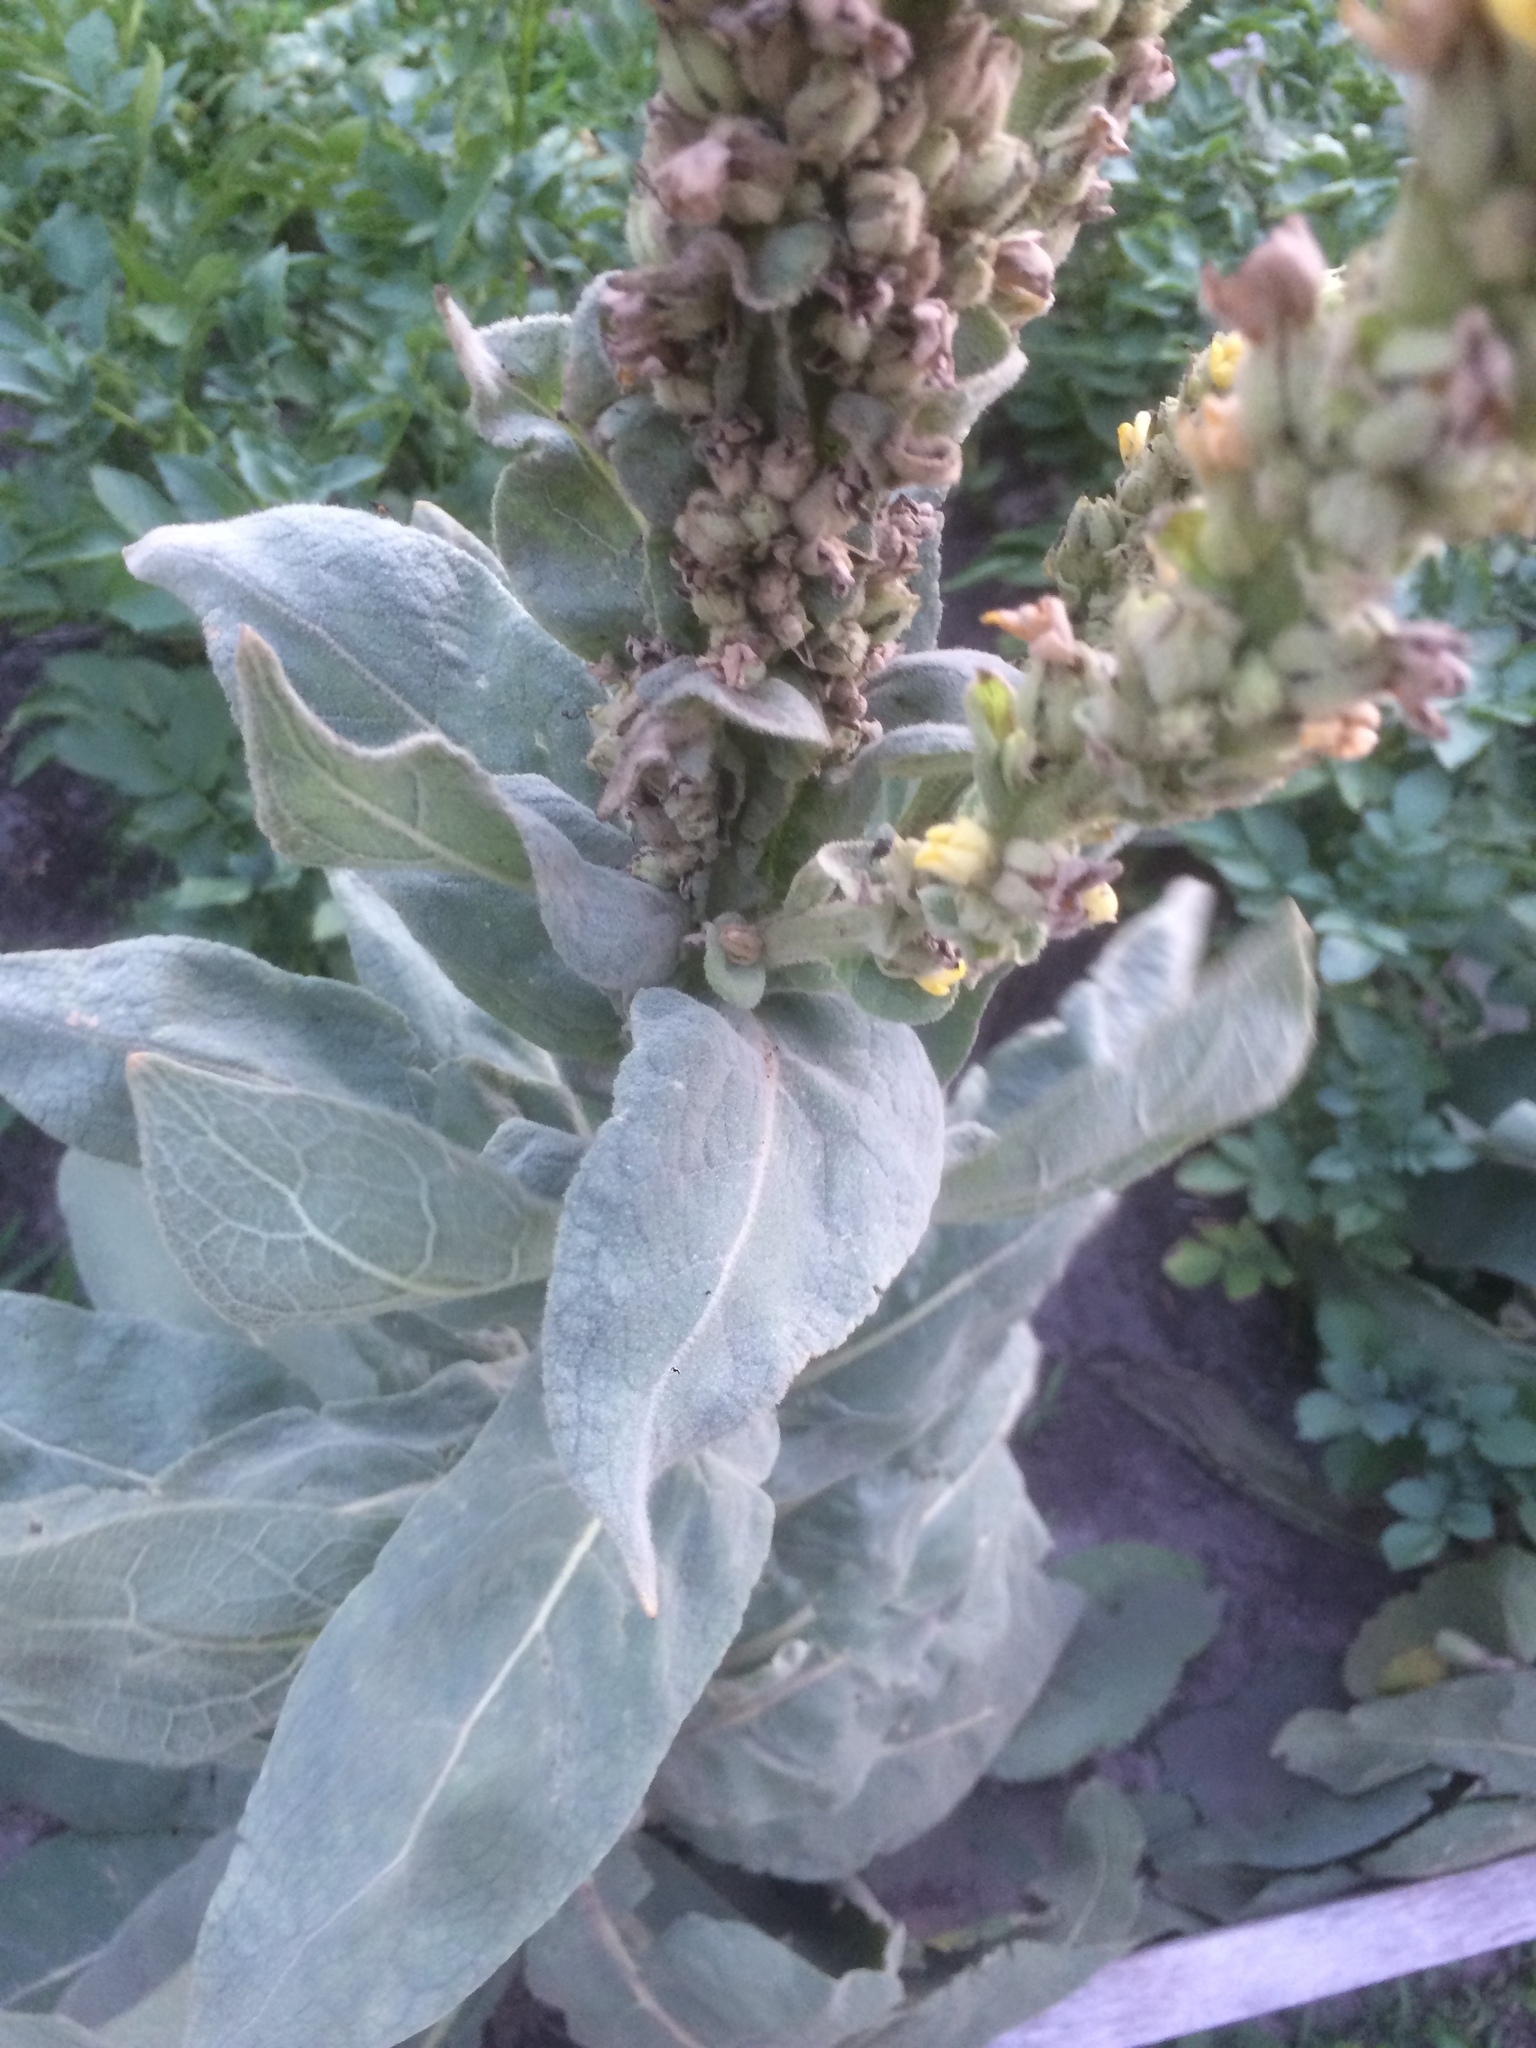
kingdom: Plantae
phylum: Tracheophyta
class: Magnoliopsida
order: Lamiales
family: Scrophulariaceae
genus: Verbascum
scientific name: Verbascum thapsus
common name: Common mullein
